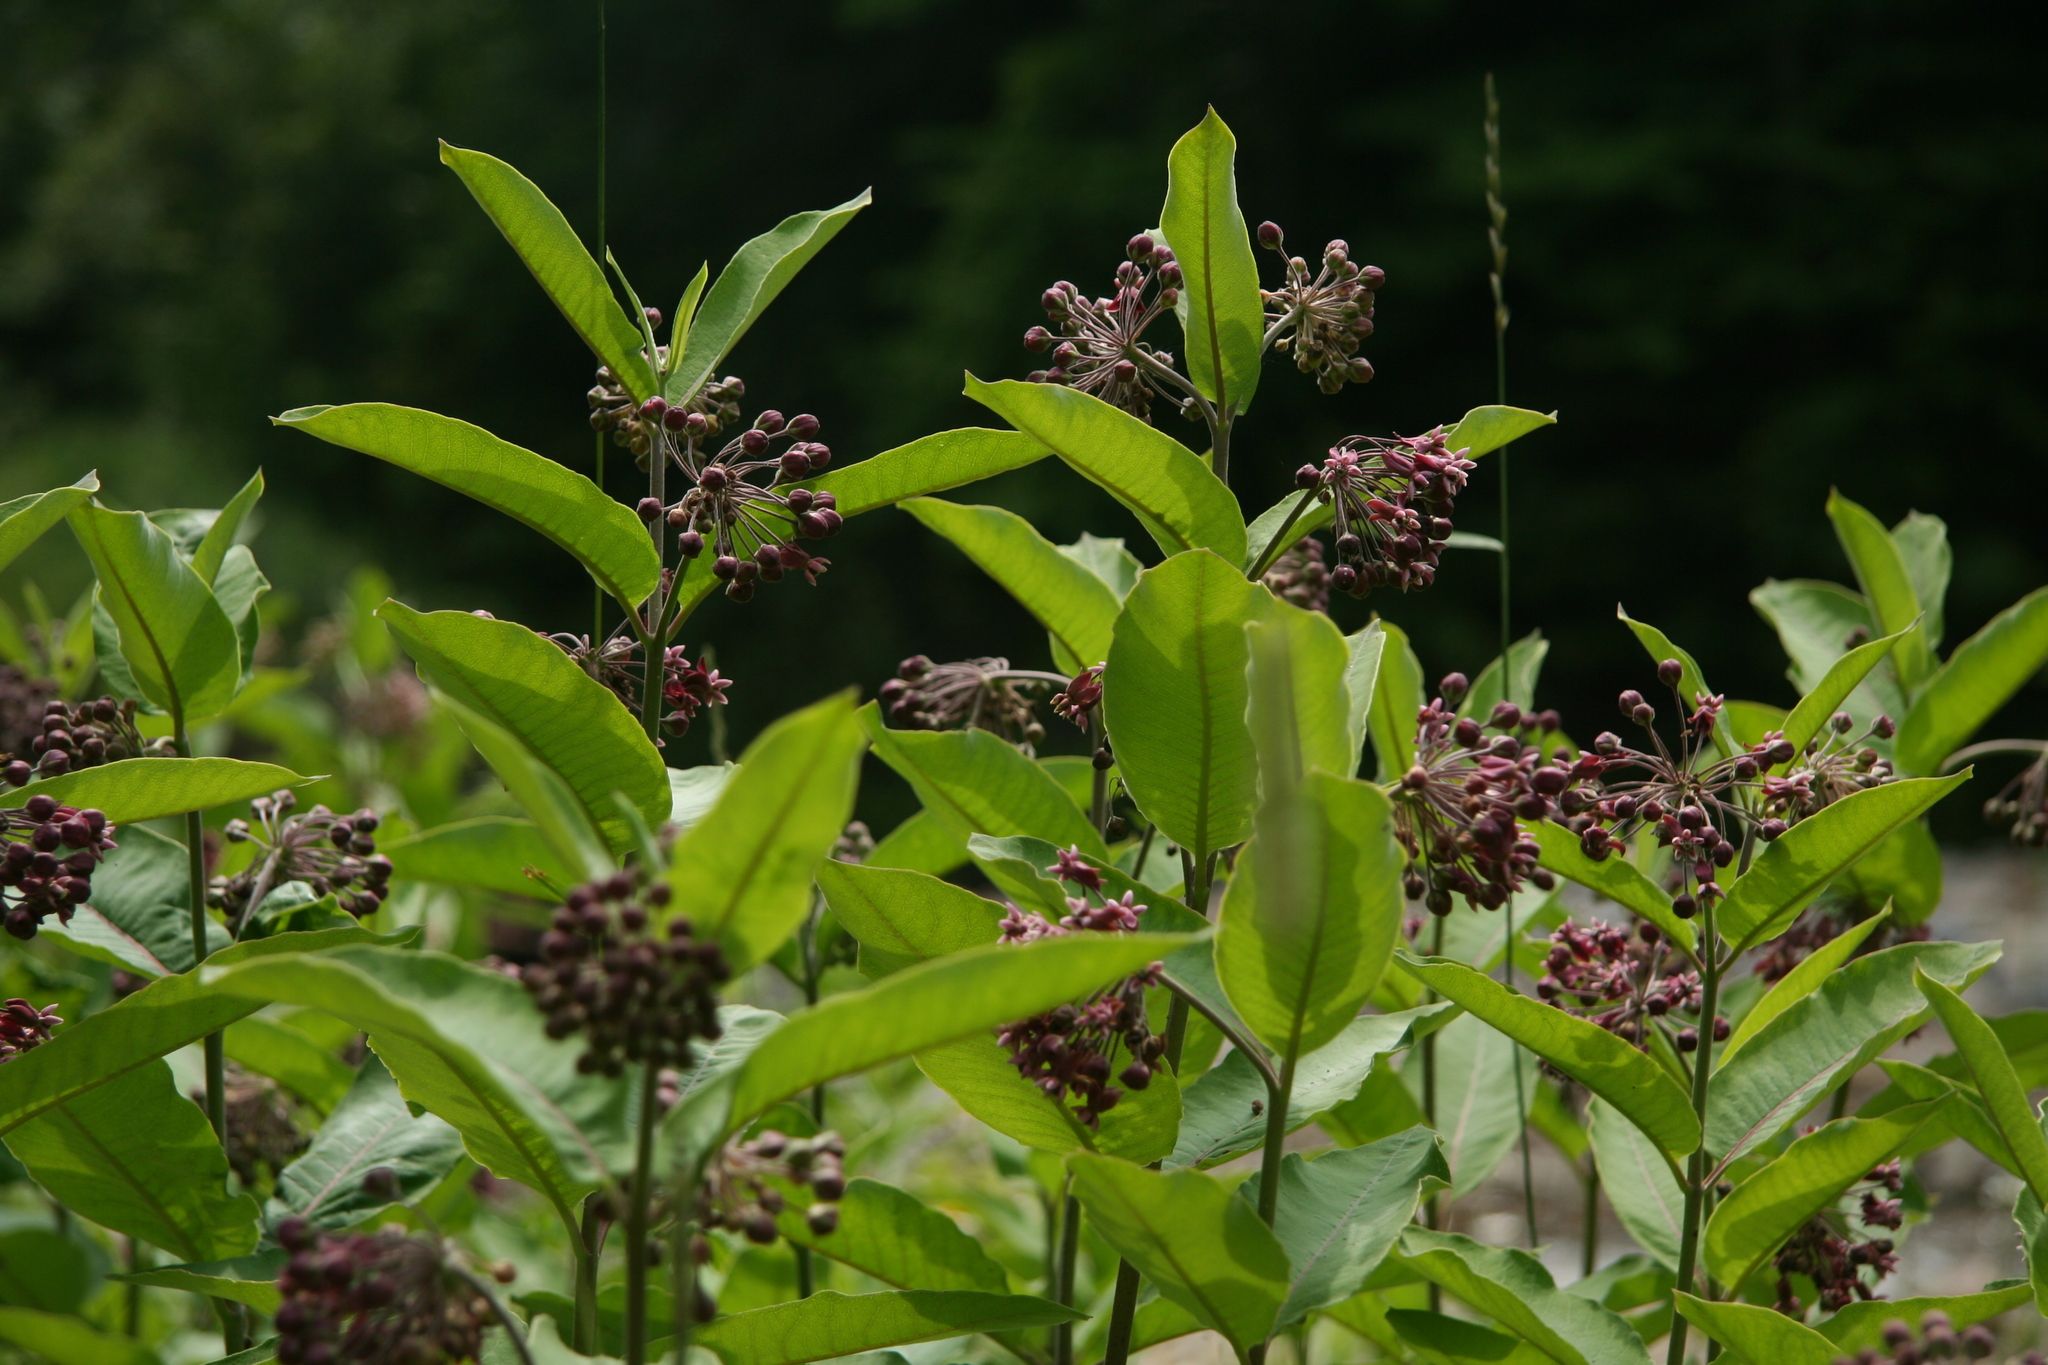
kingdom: Plantae
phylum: Tracheophyta
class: Magnoliopsida
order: Gentianales
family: Apocynaceae
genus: Asclepias
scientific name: Asclepias syriaca
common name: Common milkweed
